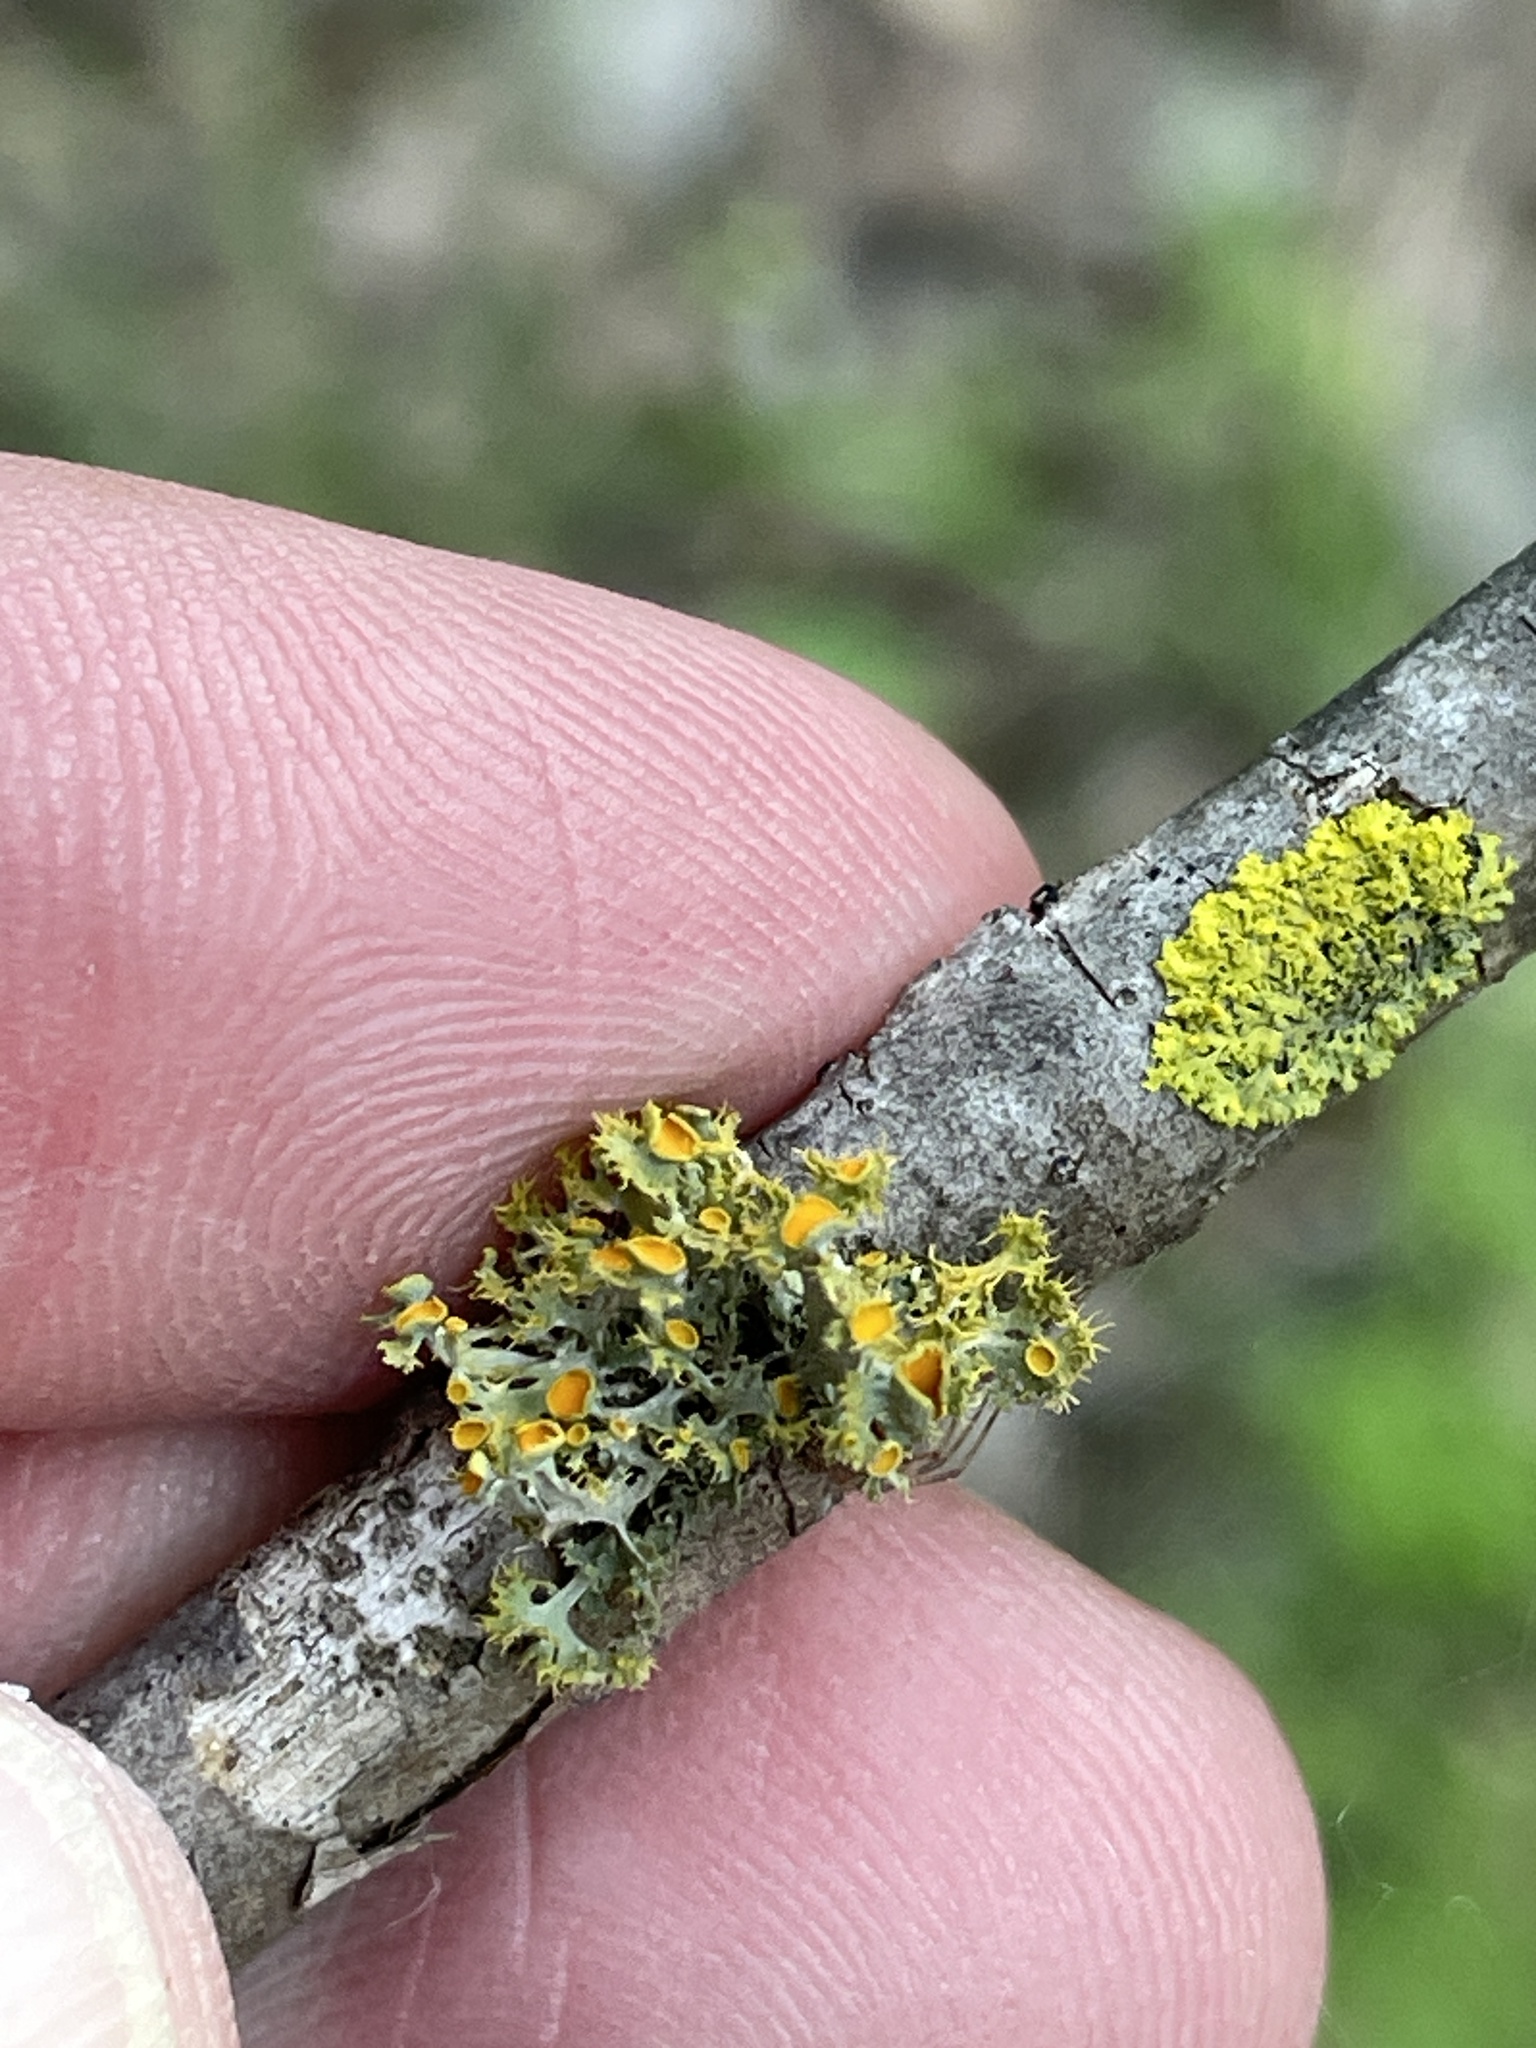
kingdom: Fungi
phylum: Ascomycota
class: Lecanoromycetes
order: Teloschistales
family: Teloschistaceae
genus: Niorma
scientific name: Niorma chrysophthalma
